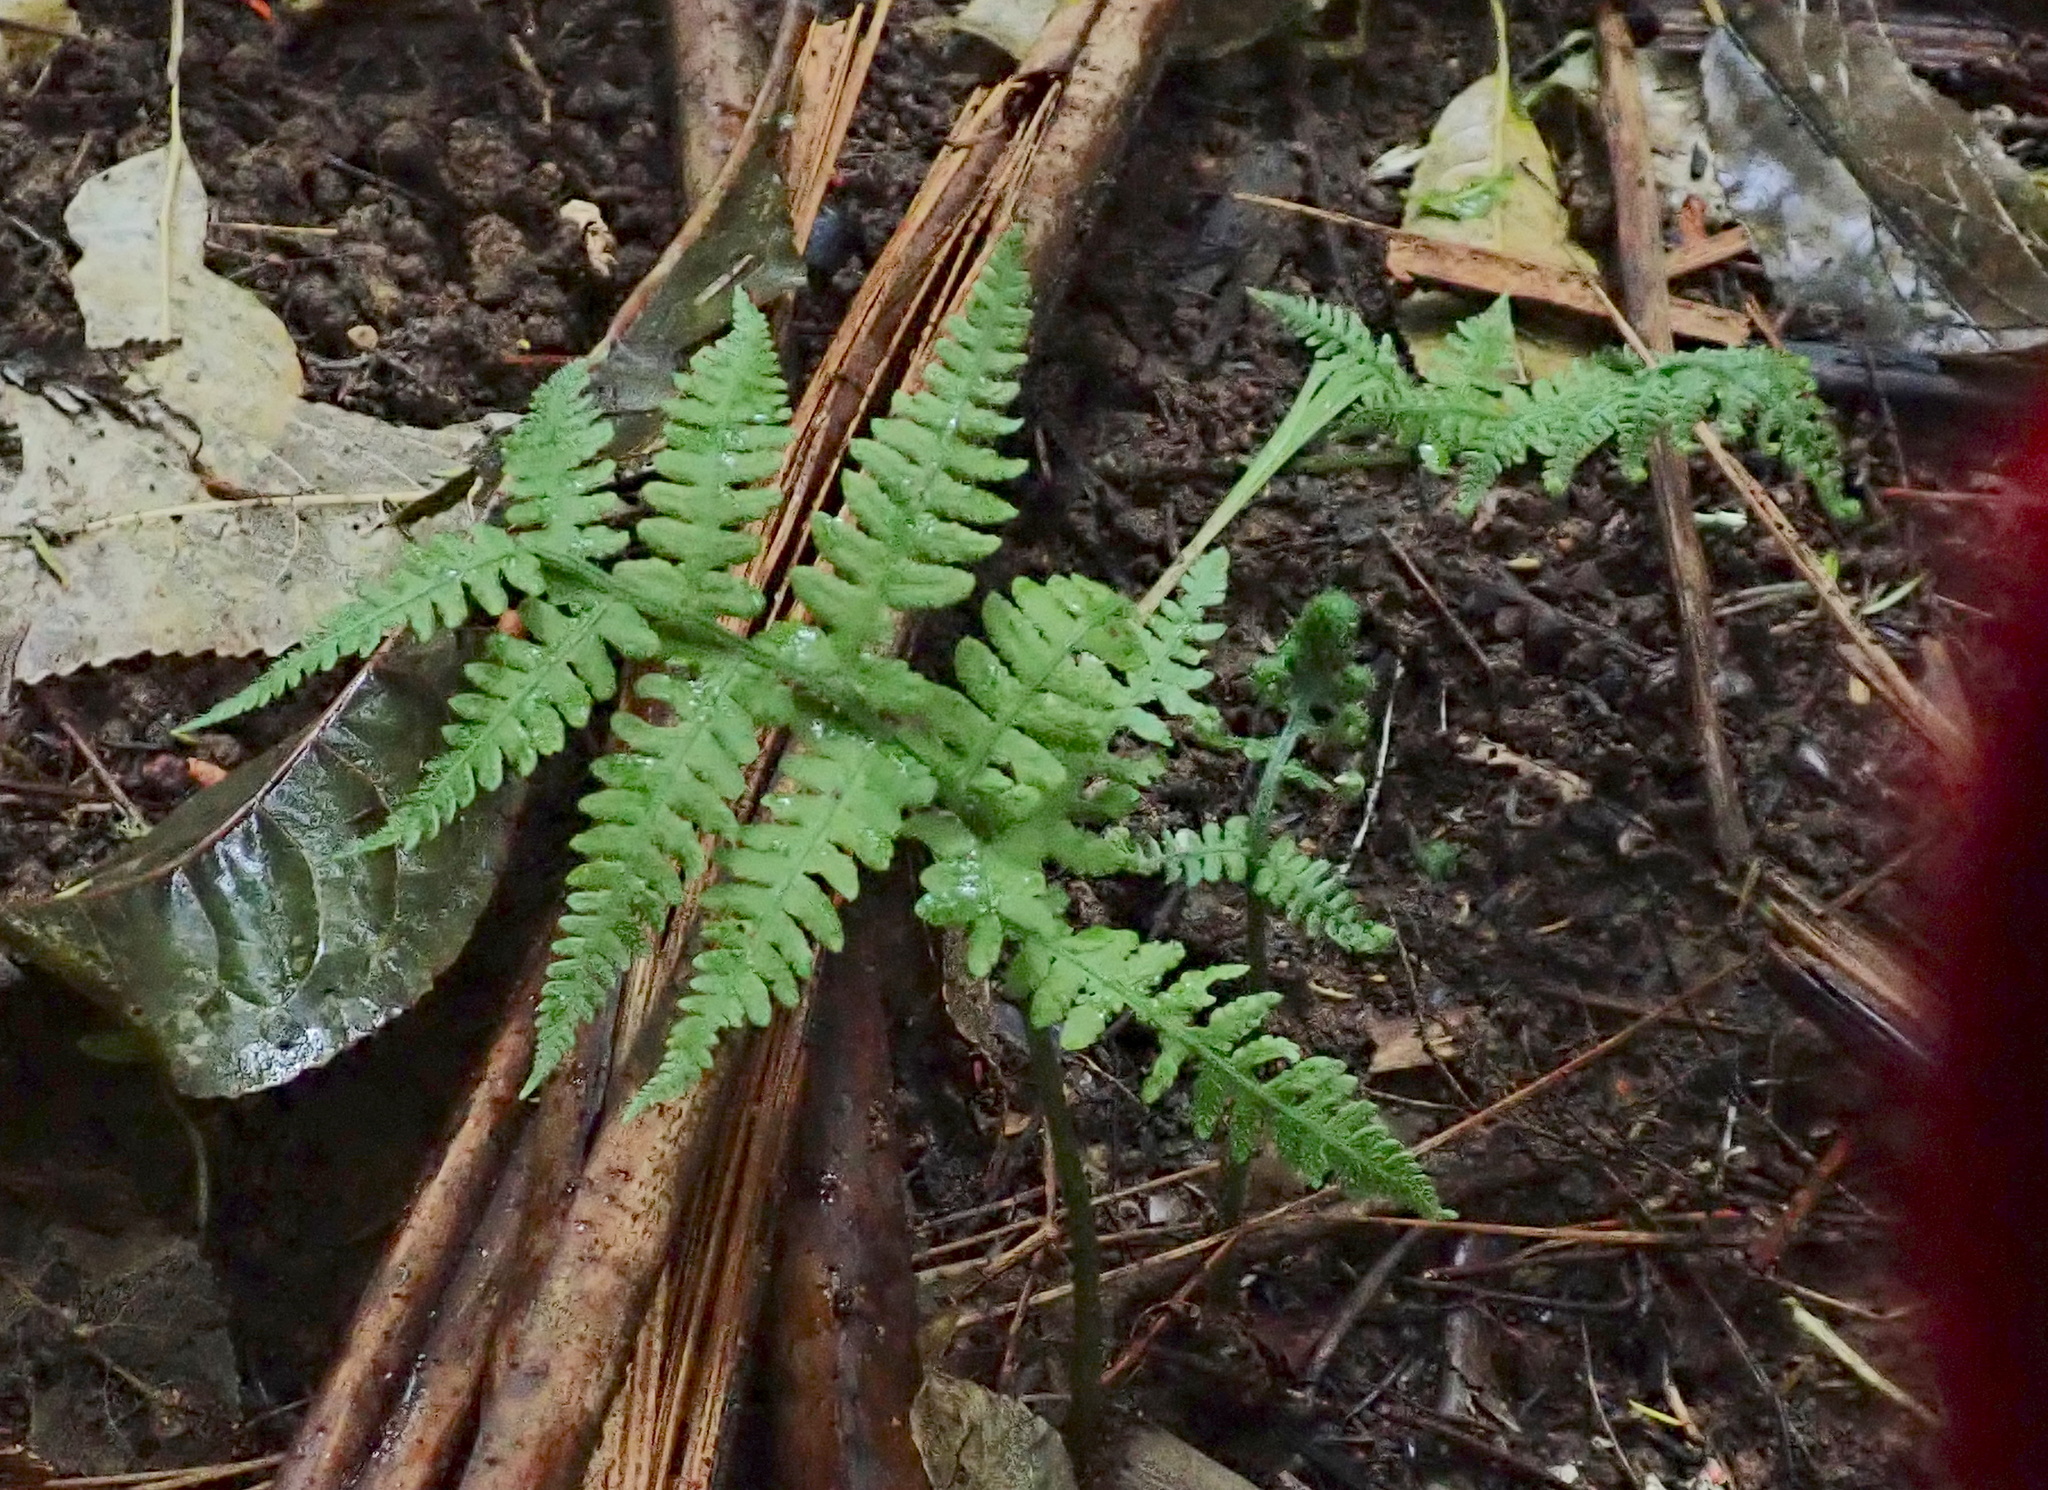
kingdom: Plantae
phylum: Tracheophyta
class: Polypodiopsida
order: Polypodiales
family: Athyriaceae
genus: Deparia
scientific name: Deparia petersenii
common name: Japanese false spleenwort
